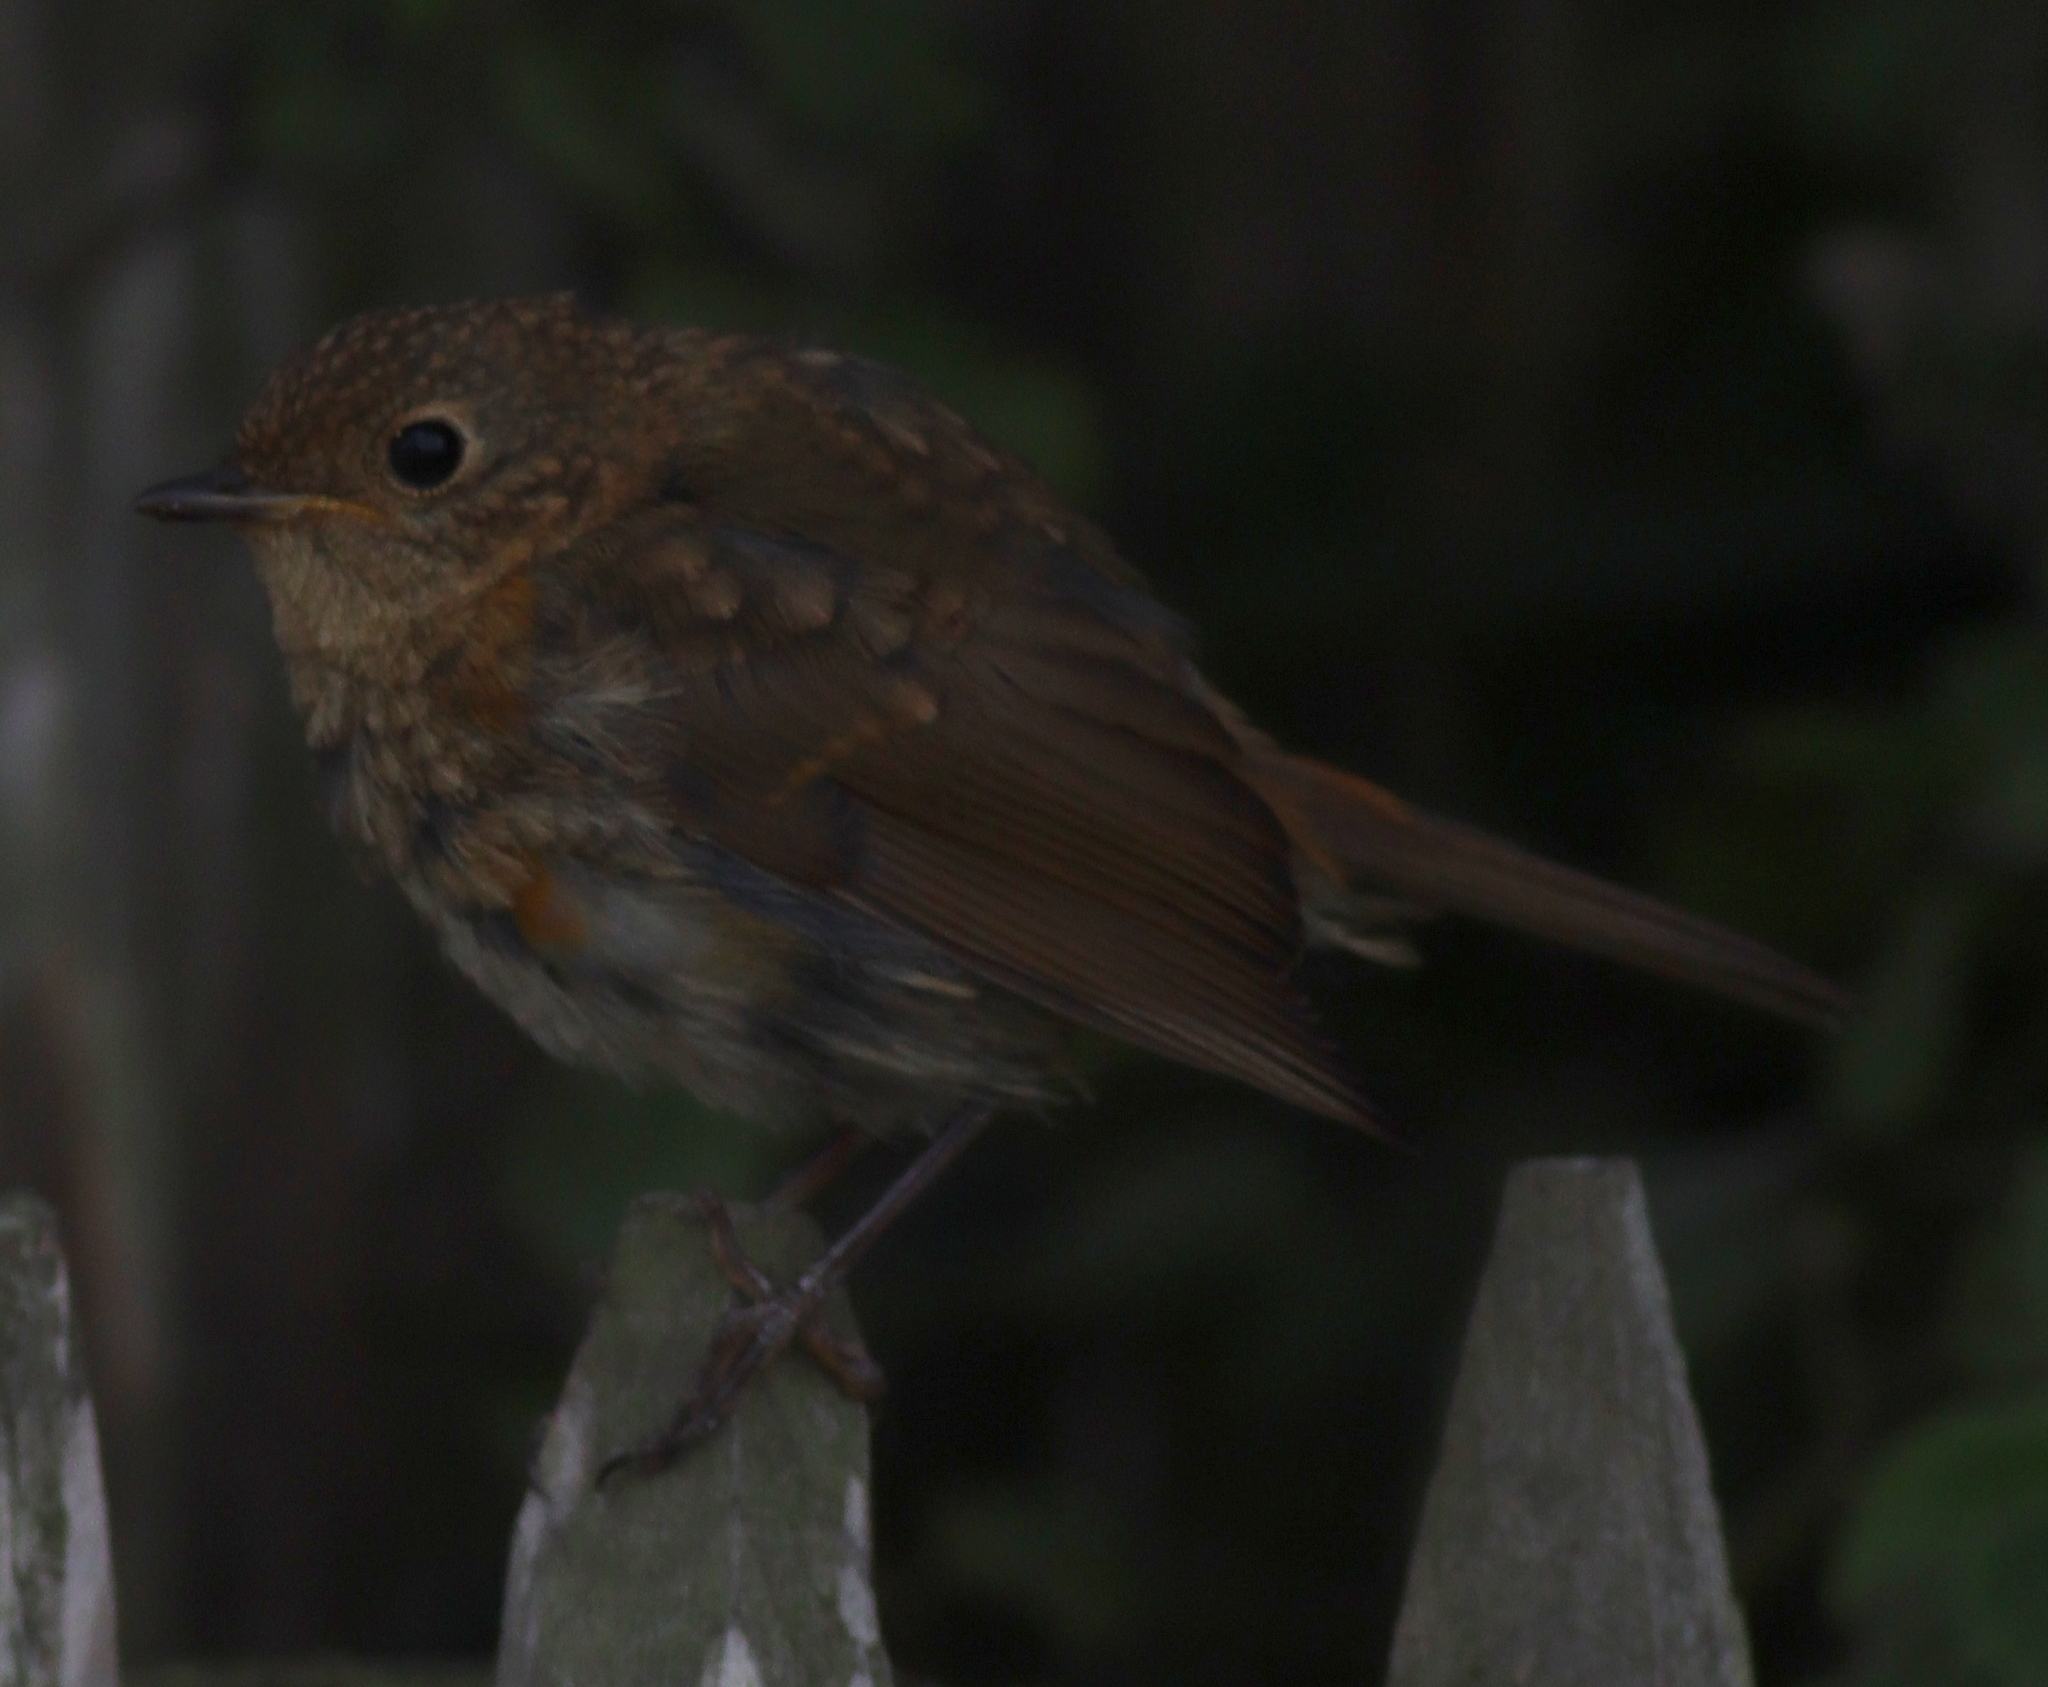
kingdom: Animalia
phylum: Chordata
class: Aves
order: Passeriformes
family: Muscicapidae
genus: Erithacus
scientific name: Erithacus rubecula
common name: European robin
